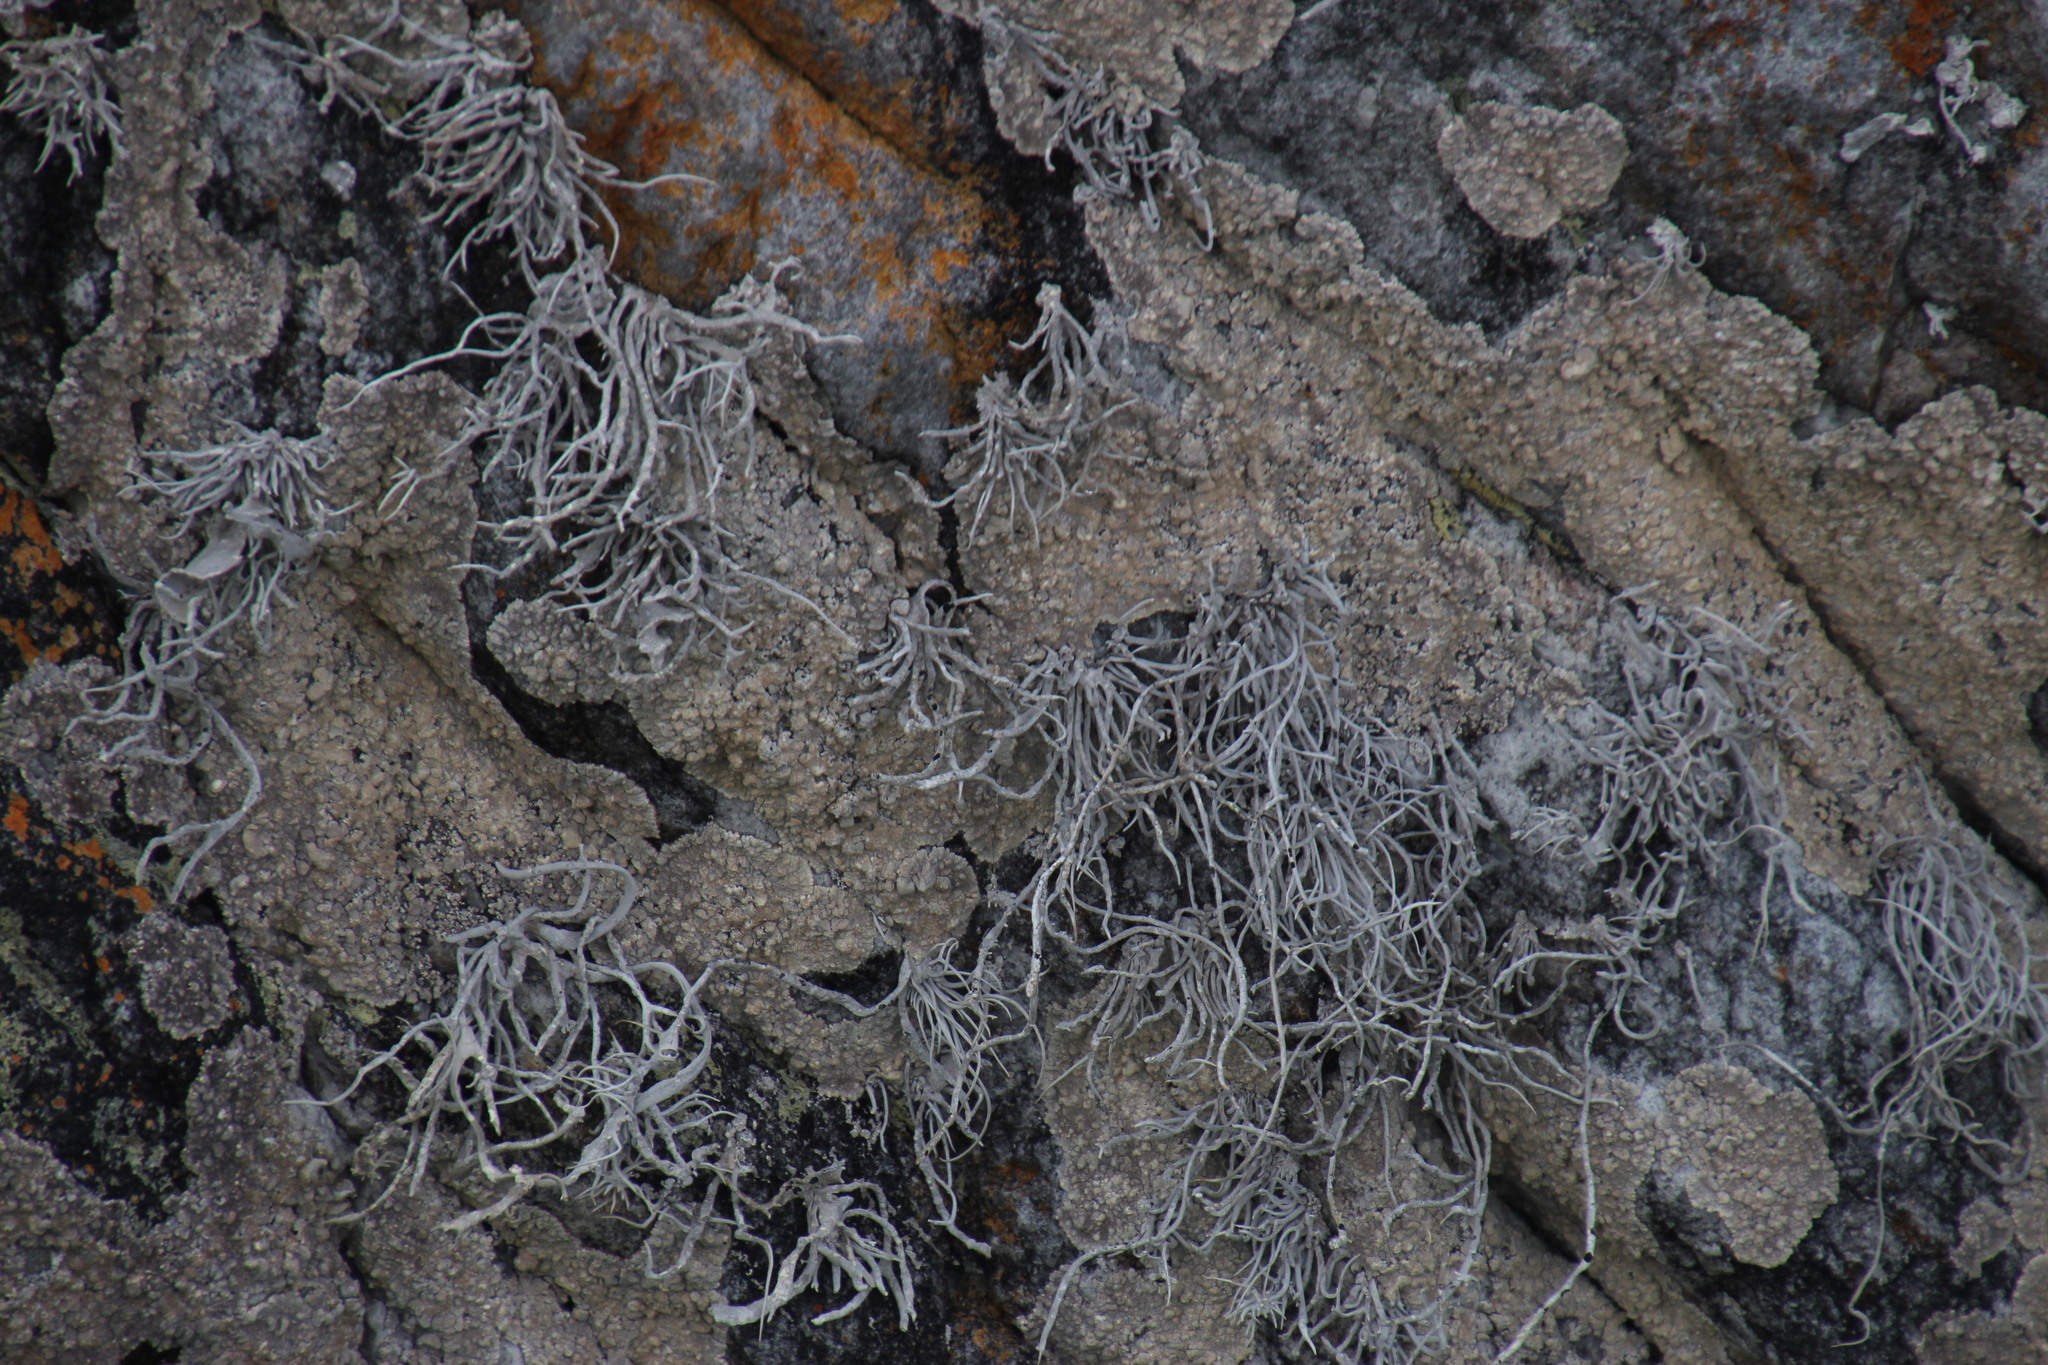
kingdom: Fungi
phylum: Ascomycota
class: Arthoniomycetes
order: Arthoniales
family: Roccellaceae
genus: Roccellina
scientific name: Roccellina hypomecha
